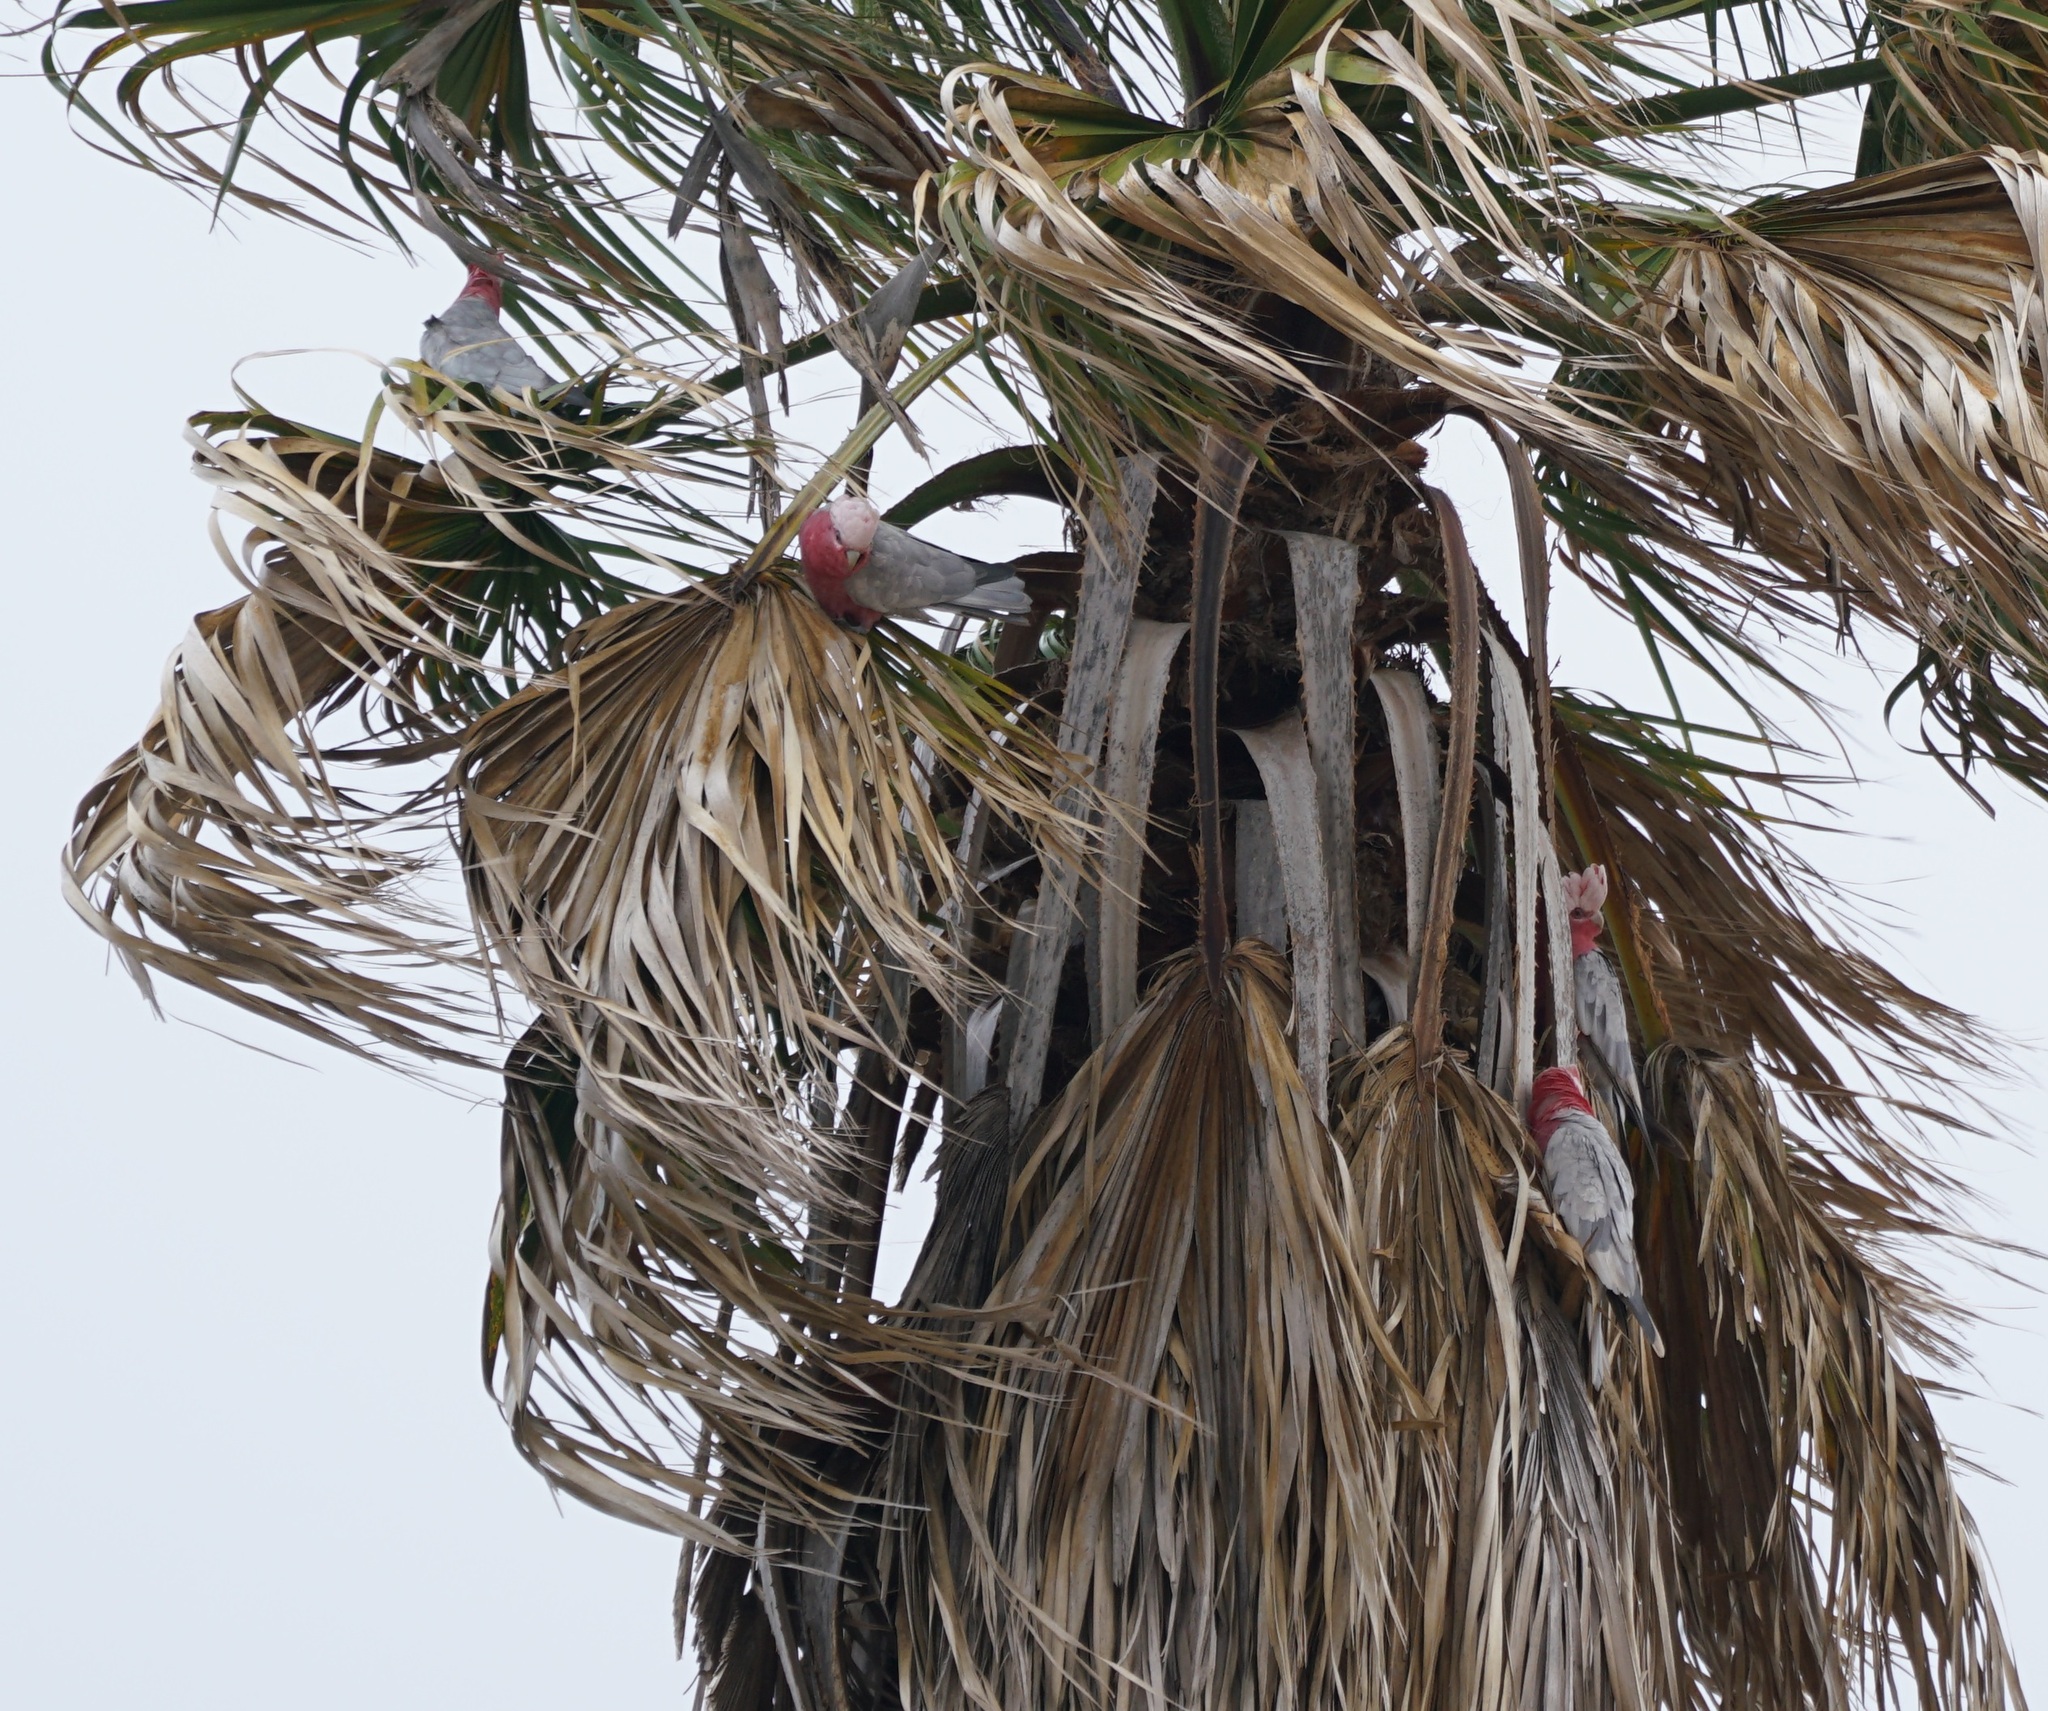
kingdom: Animalia
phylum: Chordata
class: Aves
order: Psittaciformes
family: Psittacidae
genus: Eolophus
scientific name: Eolophus roseicapilla
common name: Galah
